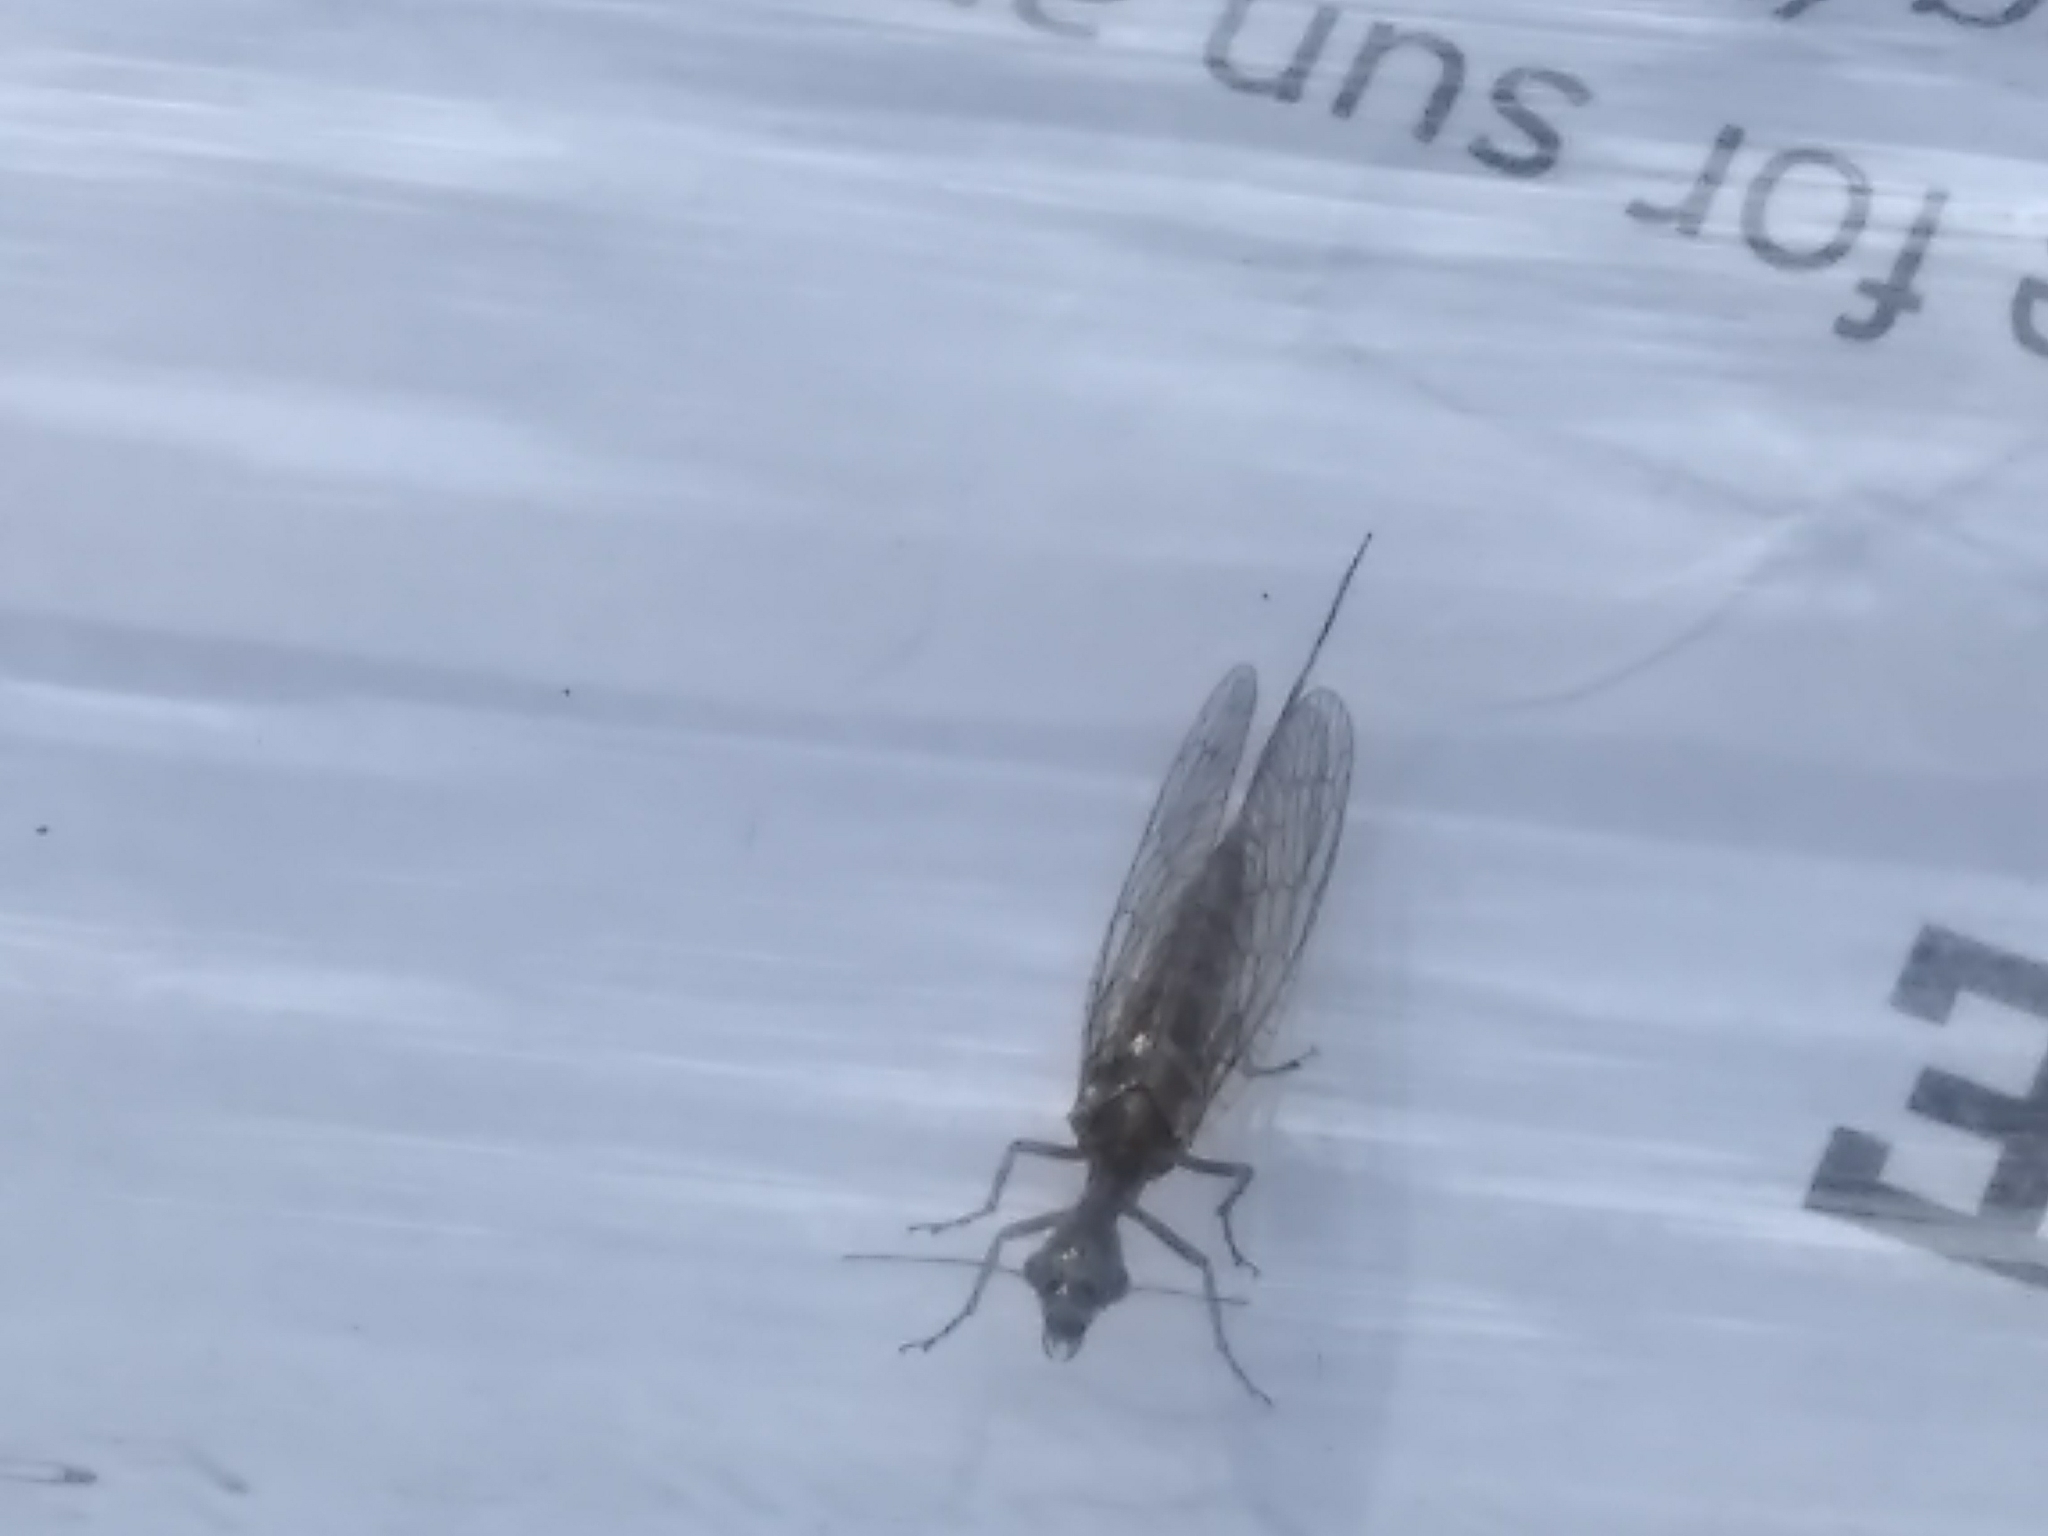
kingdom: Animalia
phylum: Arthropoda
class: Insecta
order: Raphidioptera
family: Raphidiidae
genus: Agulla
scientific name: Agulla bicolor
